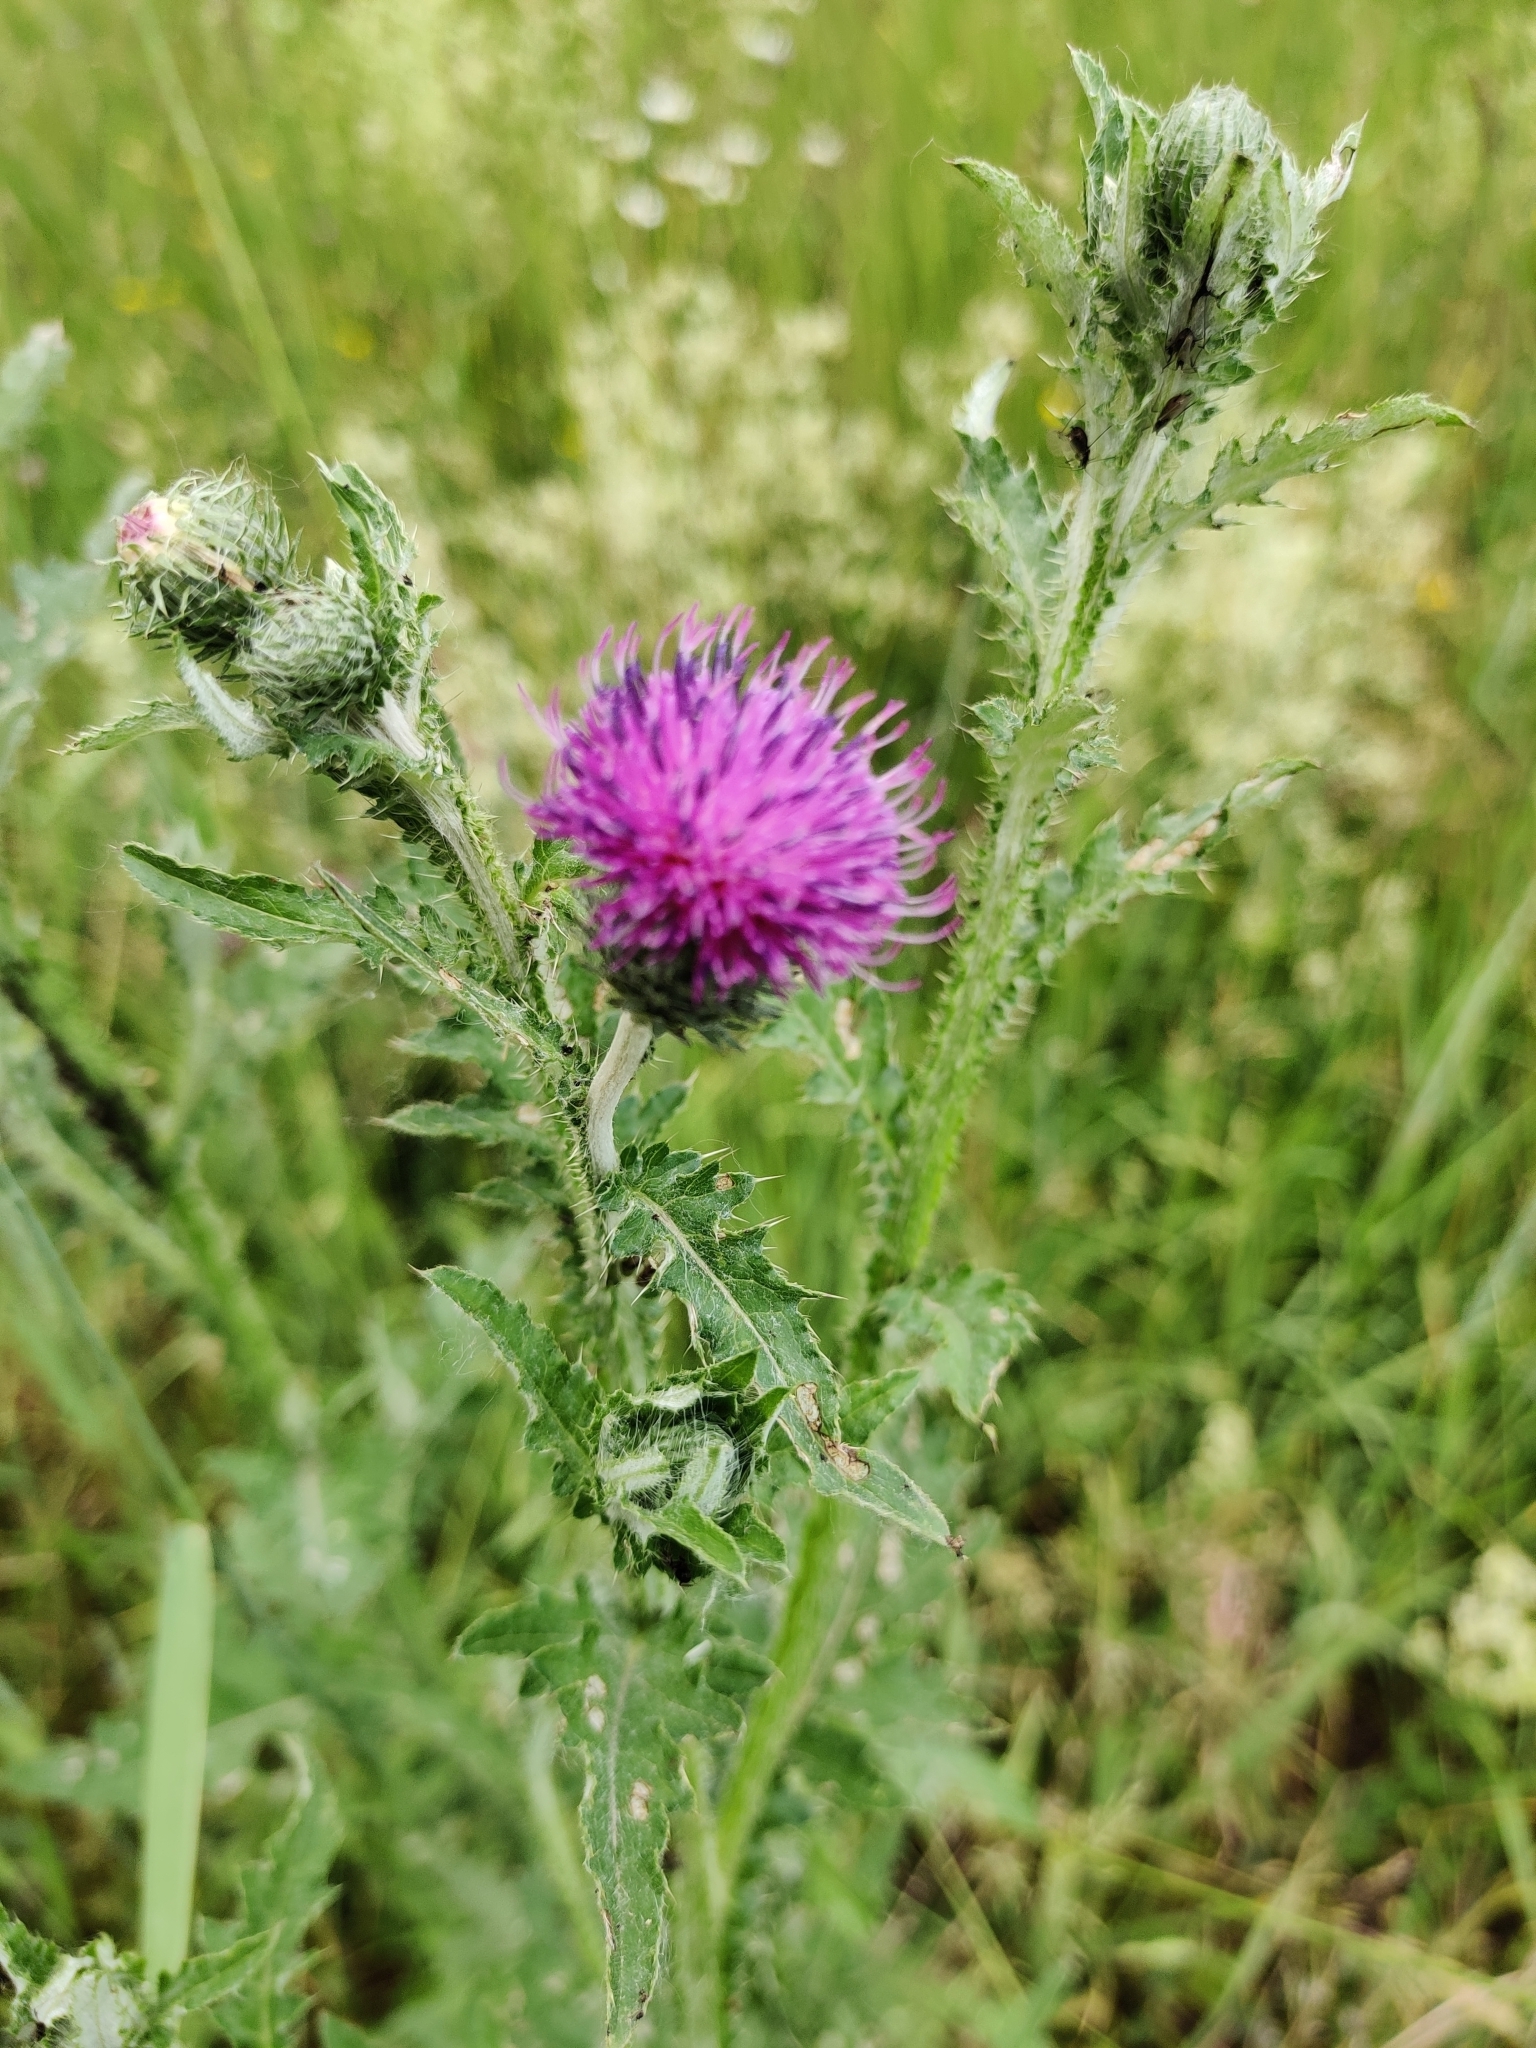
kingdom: Plantae
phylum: Tracheophyta
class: Magnoliopsida
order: Asterales
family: Asteraceae
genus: Carduus
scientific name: Carduus crispus
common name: Welted thistle
